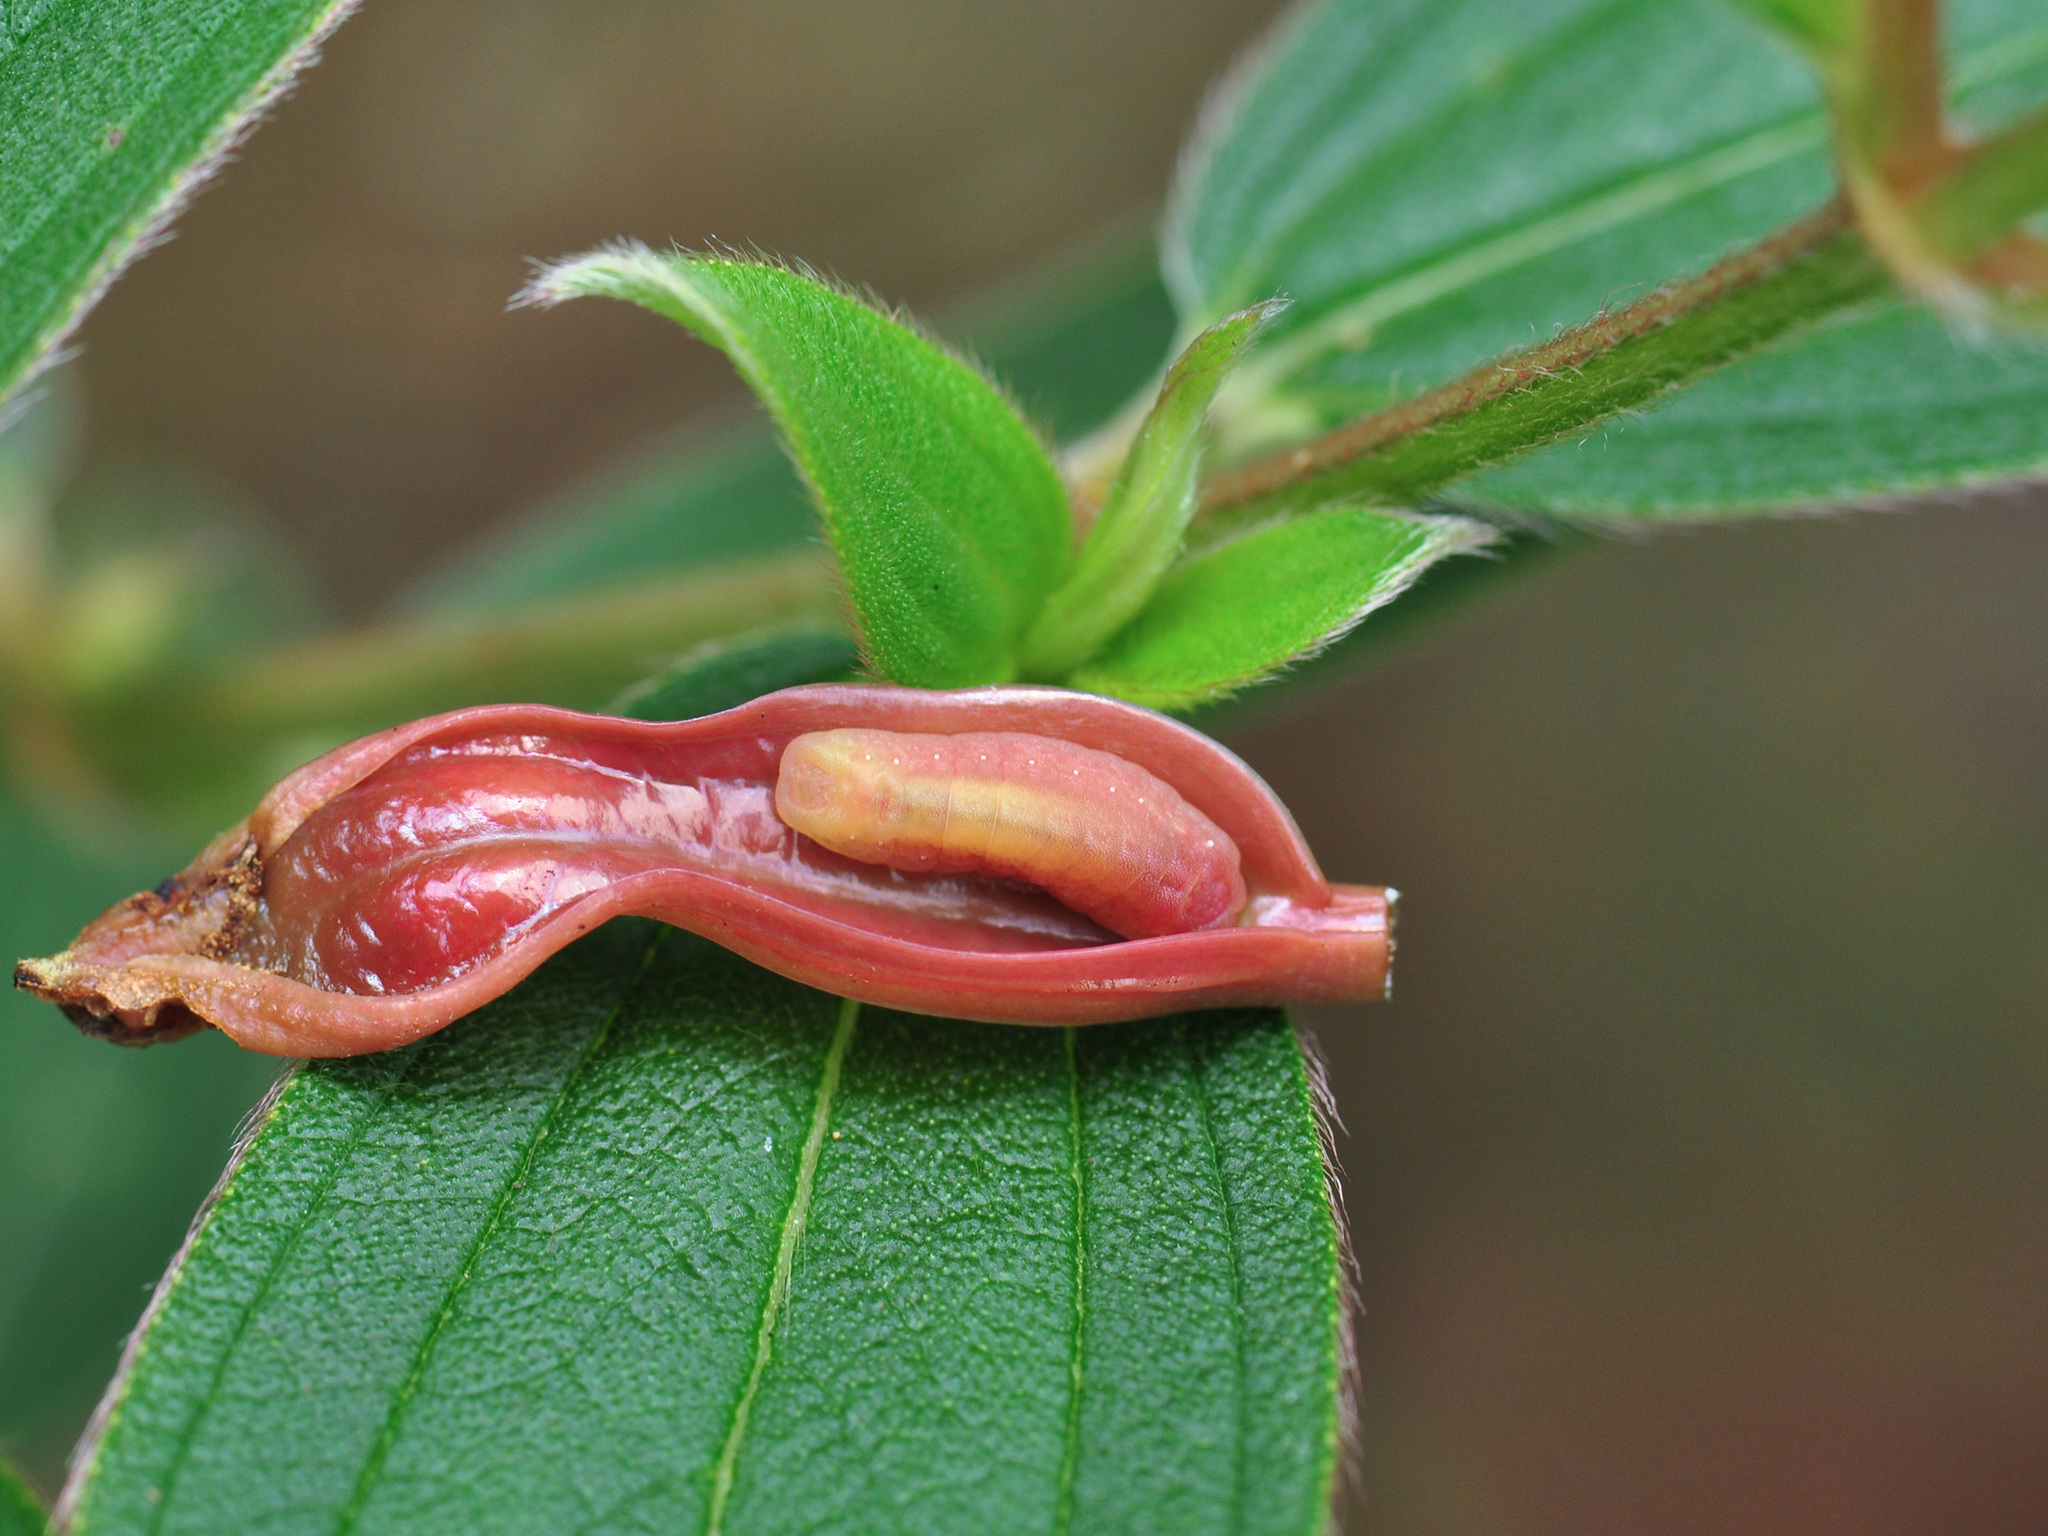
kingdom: Animalia
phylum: Arthropoda
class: Insecta
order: Lepidoptera
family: Lycaenidae
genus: Yasoda
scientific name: Yasoda pita
